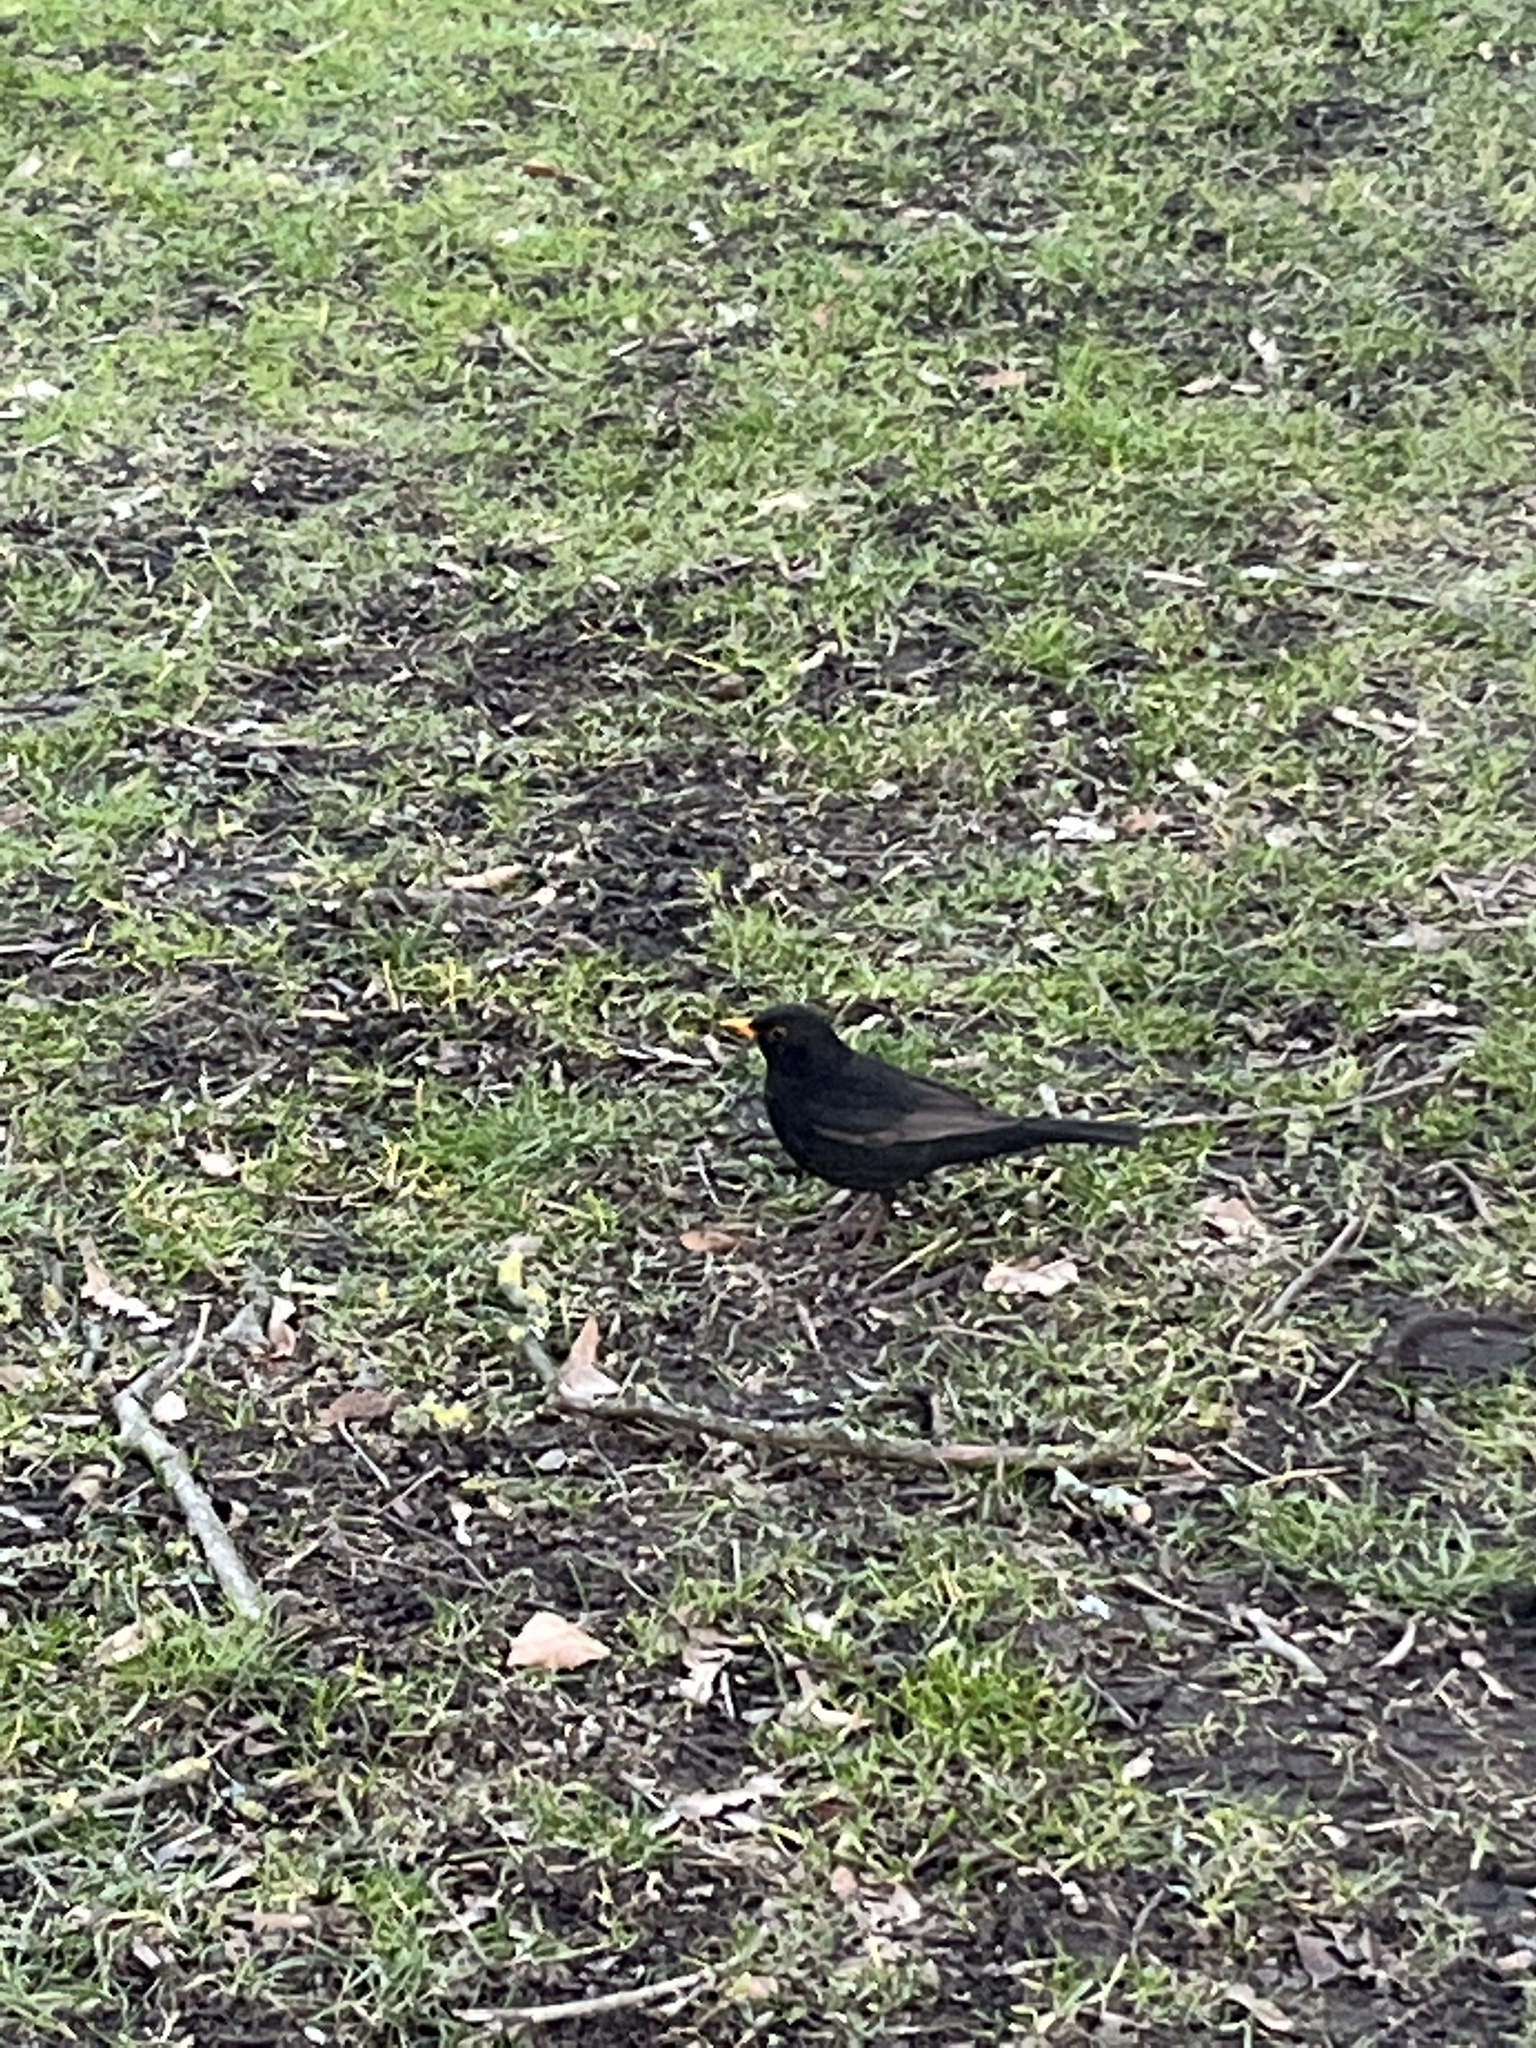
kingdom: Animalia
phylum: Chordata
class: Aves
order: Passeriformes
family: Turdidae
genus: Turdus
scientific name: Turdus merula
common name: Common blackbird
